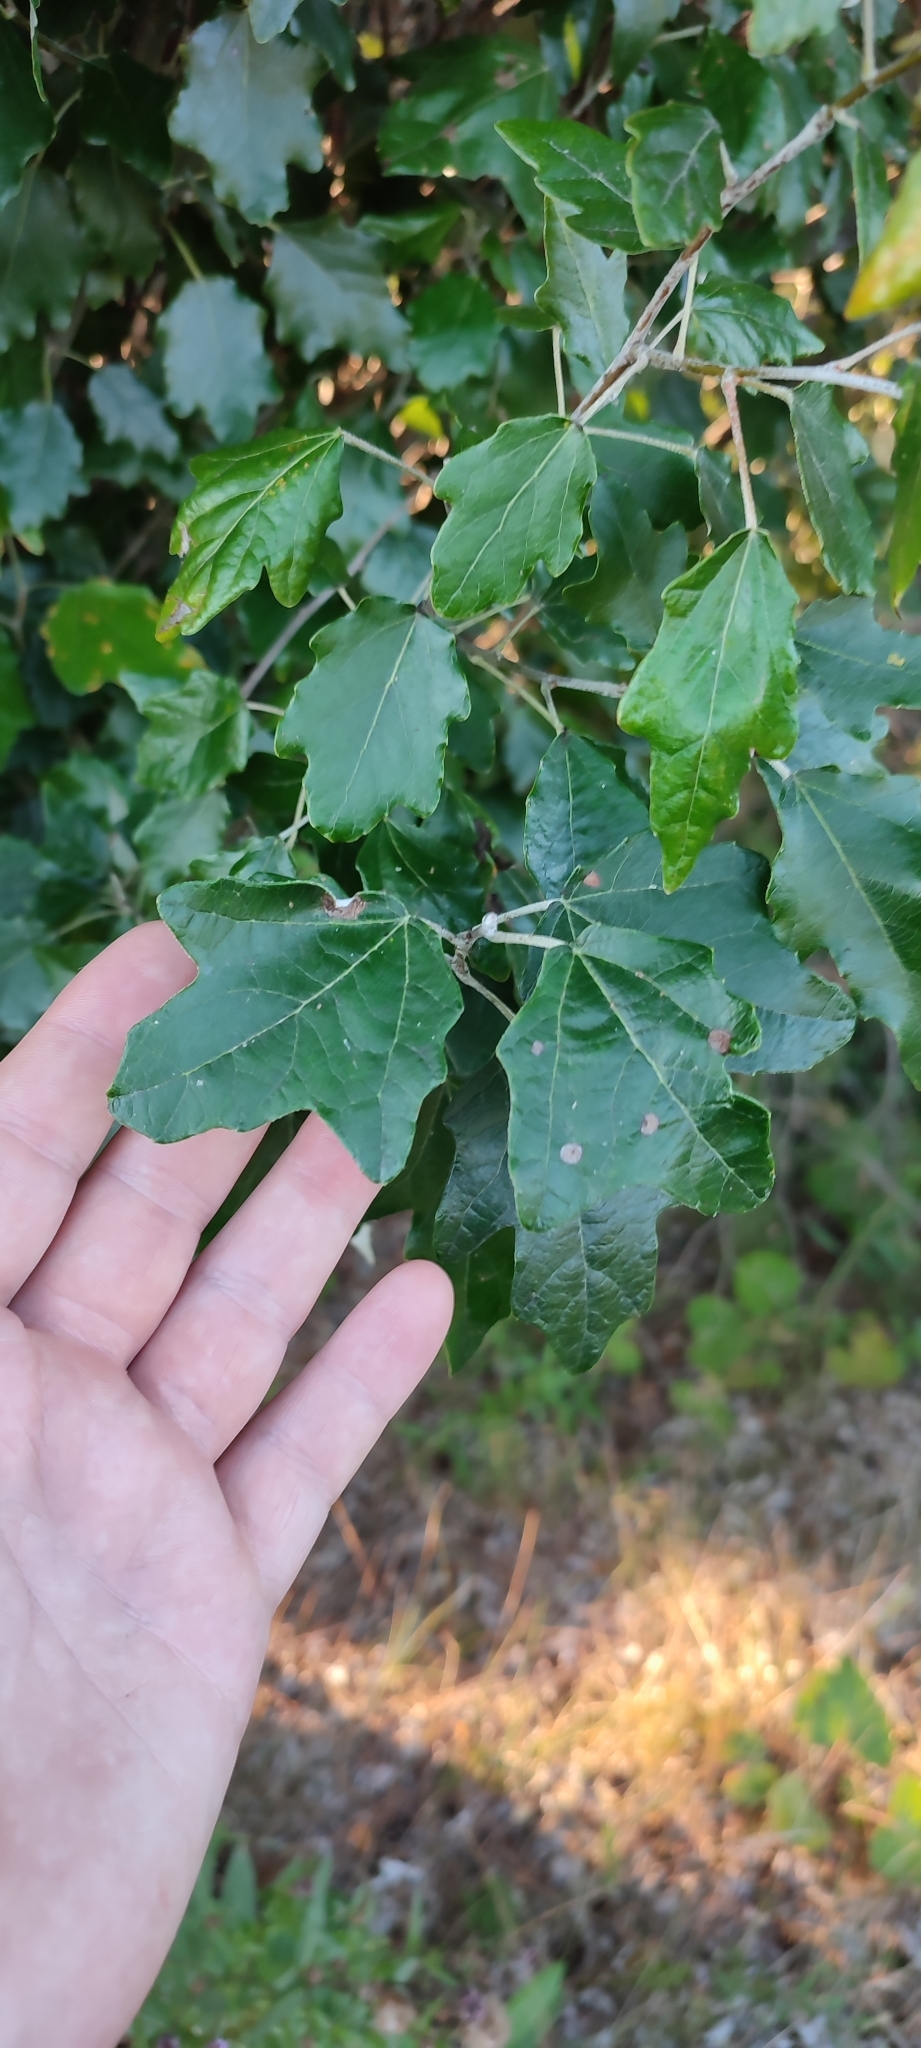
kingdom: Plantae
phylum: Tracheophyta
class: Magnoliopsida
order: Malpighiales
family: Salicaceae
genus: Populus
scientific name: Populus alba
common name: White poplar
